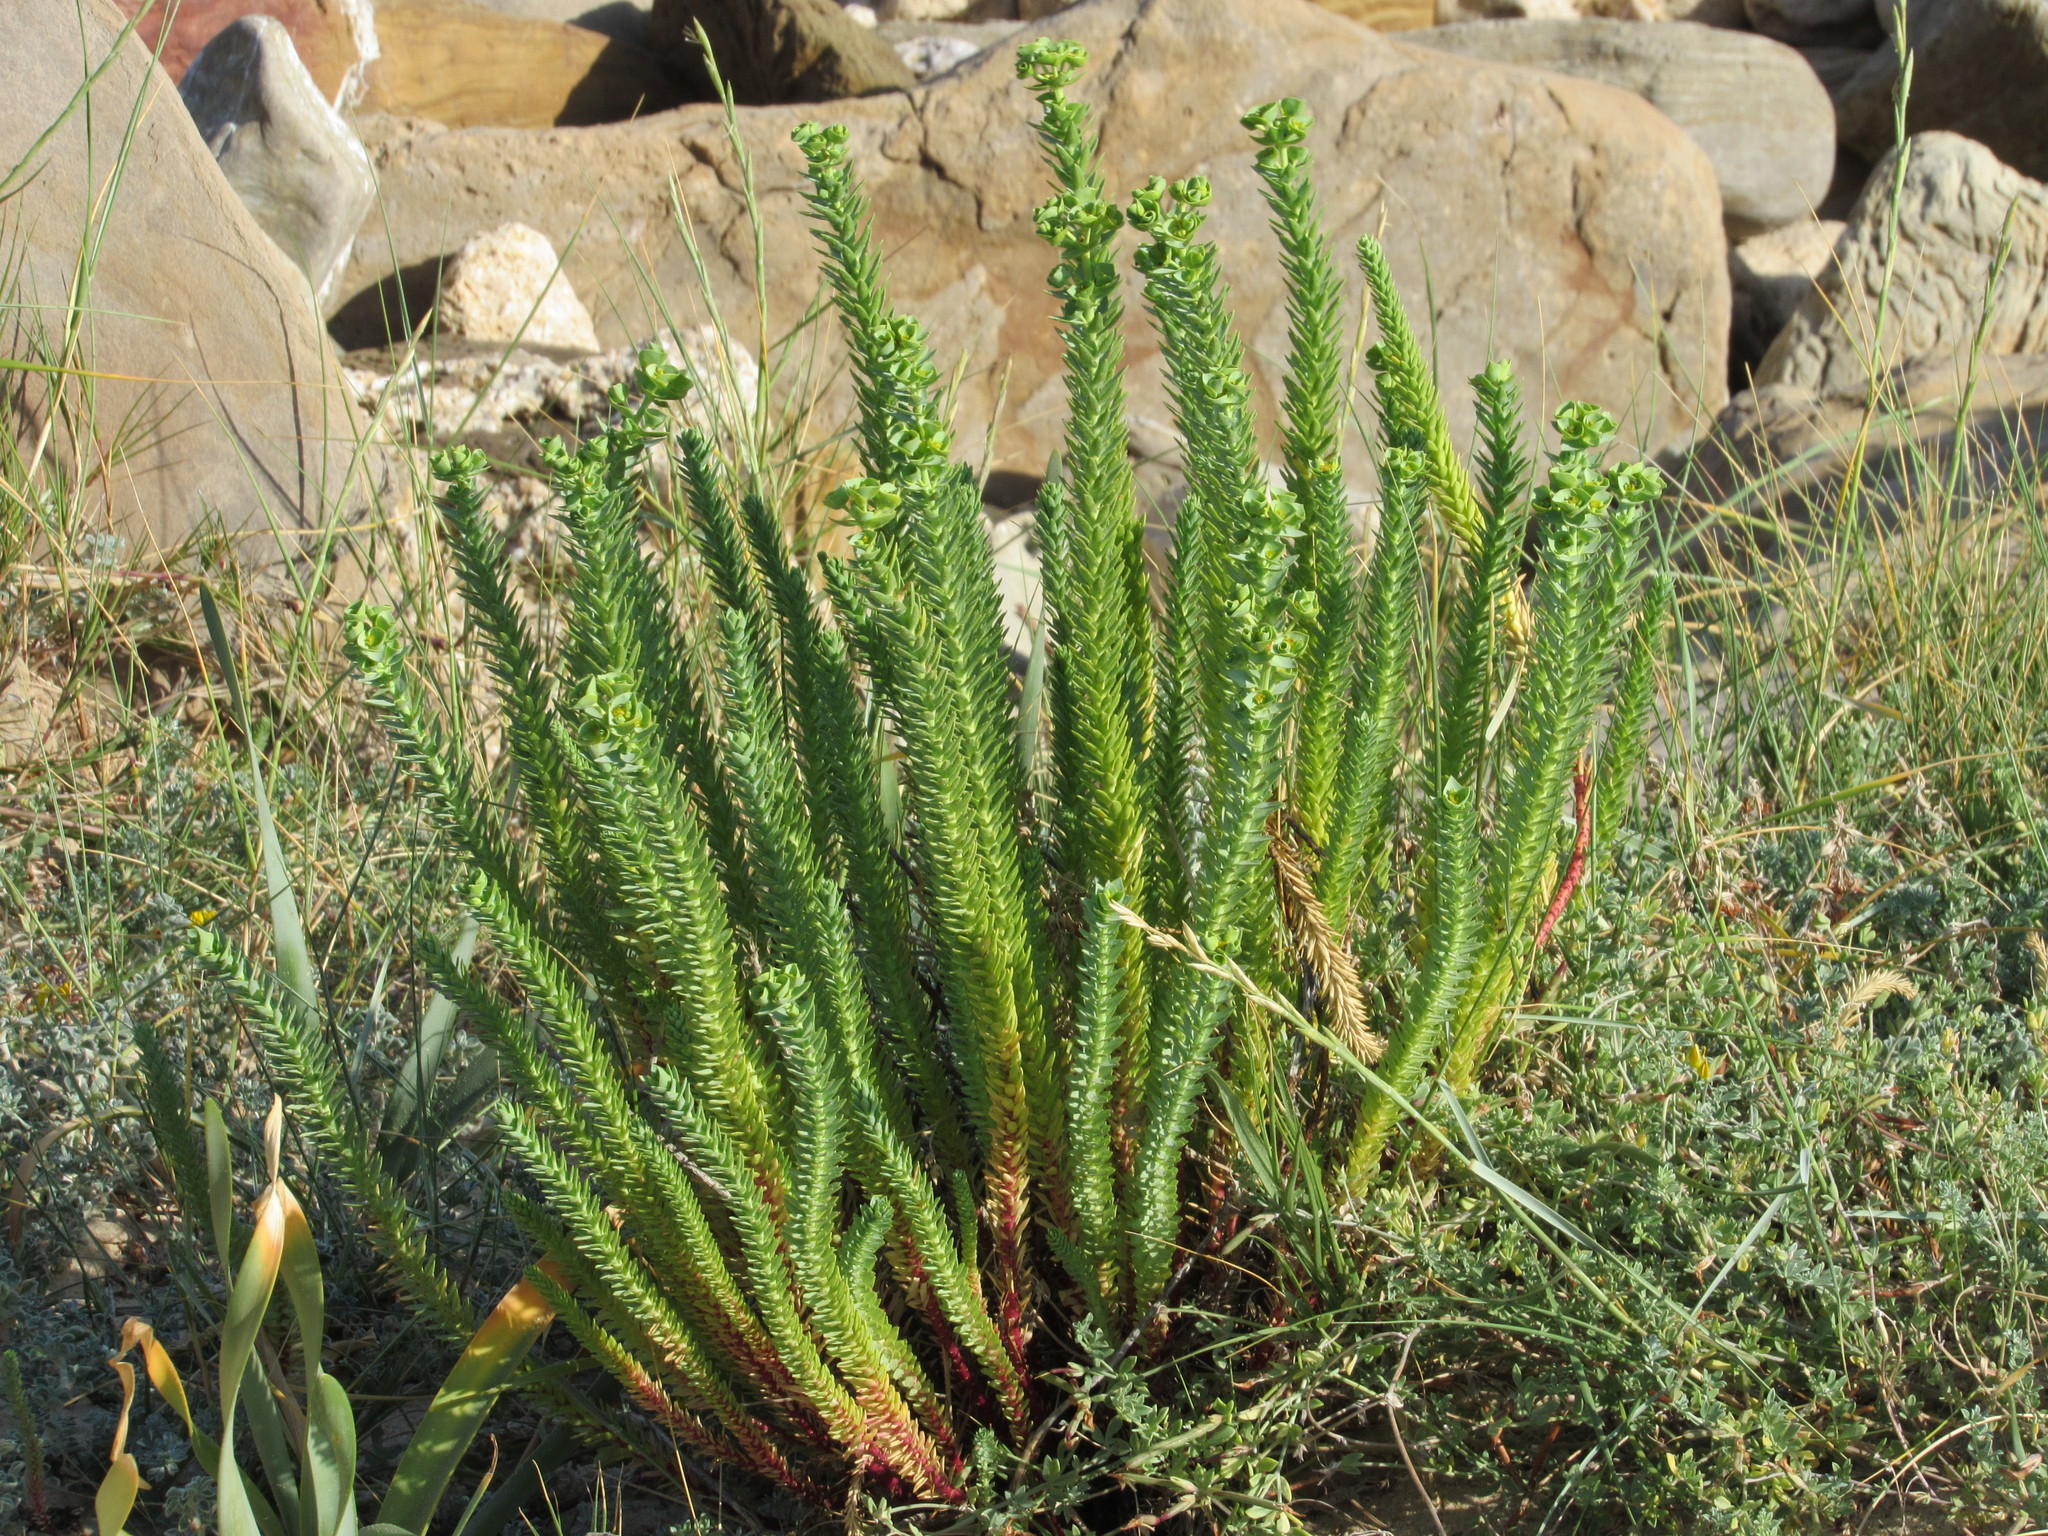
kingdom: Plantae
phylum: Tracheophyta
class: Magnoliopsida
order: Malpighiales
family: Euphorbiaceae
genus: Euphorbia
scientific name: Euphorbia paralias
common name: Sea spurge
